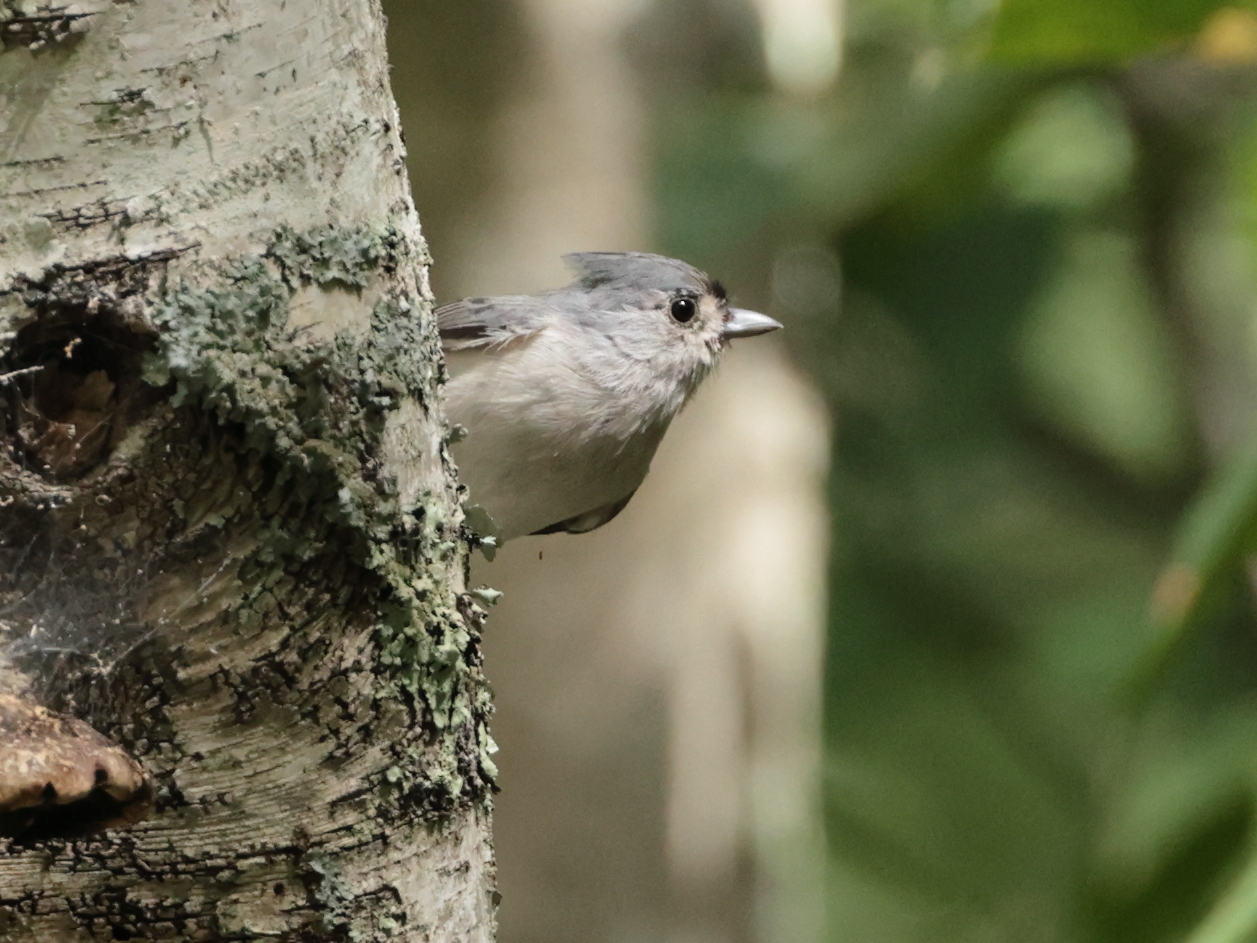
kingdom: Animalia
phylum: Chordata
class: Aves
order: Passeriformes
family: Paridae
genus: Baeolophus
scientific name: Baeolophus bicolor
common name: Tufted titmouse
